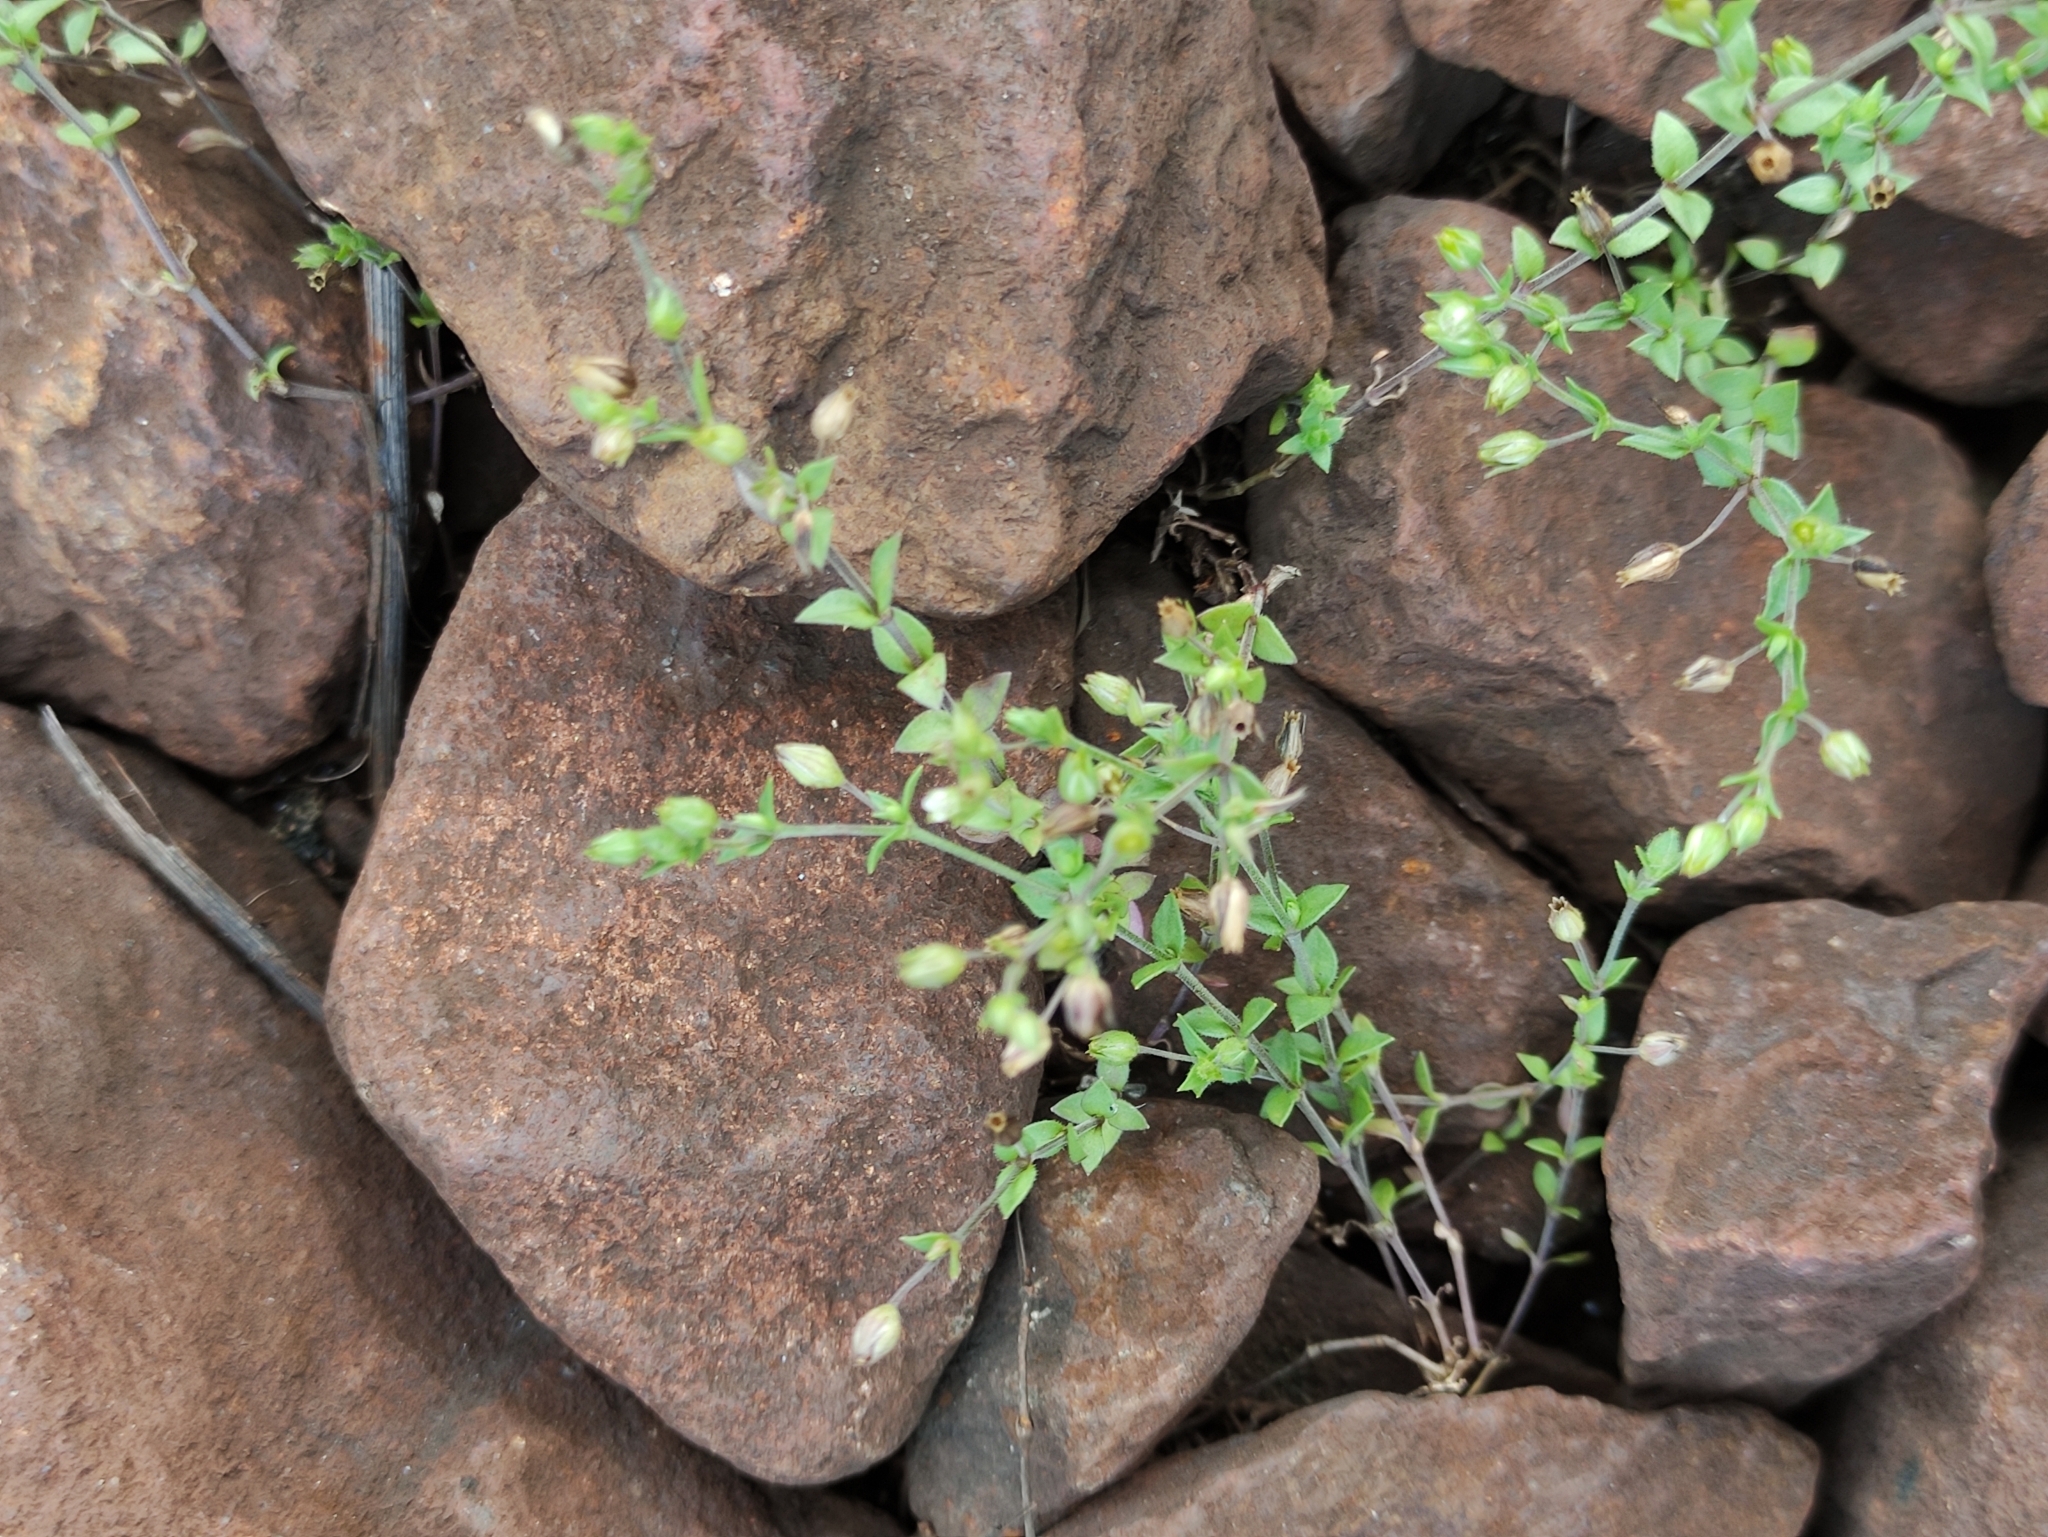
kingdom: Plantae
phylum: Tracheophyta
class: Magnoliopsida
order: Caryophyllales
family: Caryophyllaceae
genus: Arenaria
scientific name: Arenaria serpyllifolia
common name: Thyme-leaved sandwort
